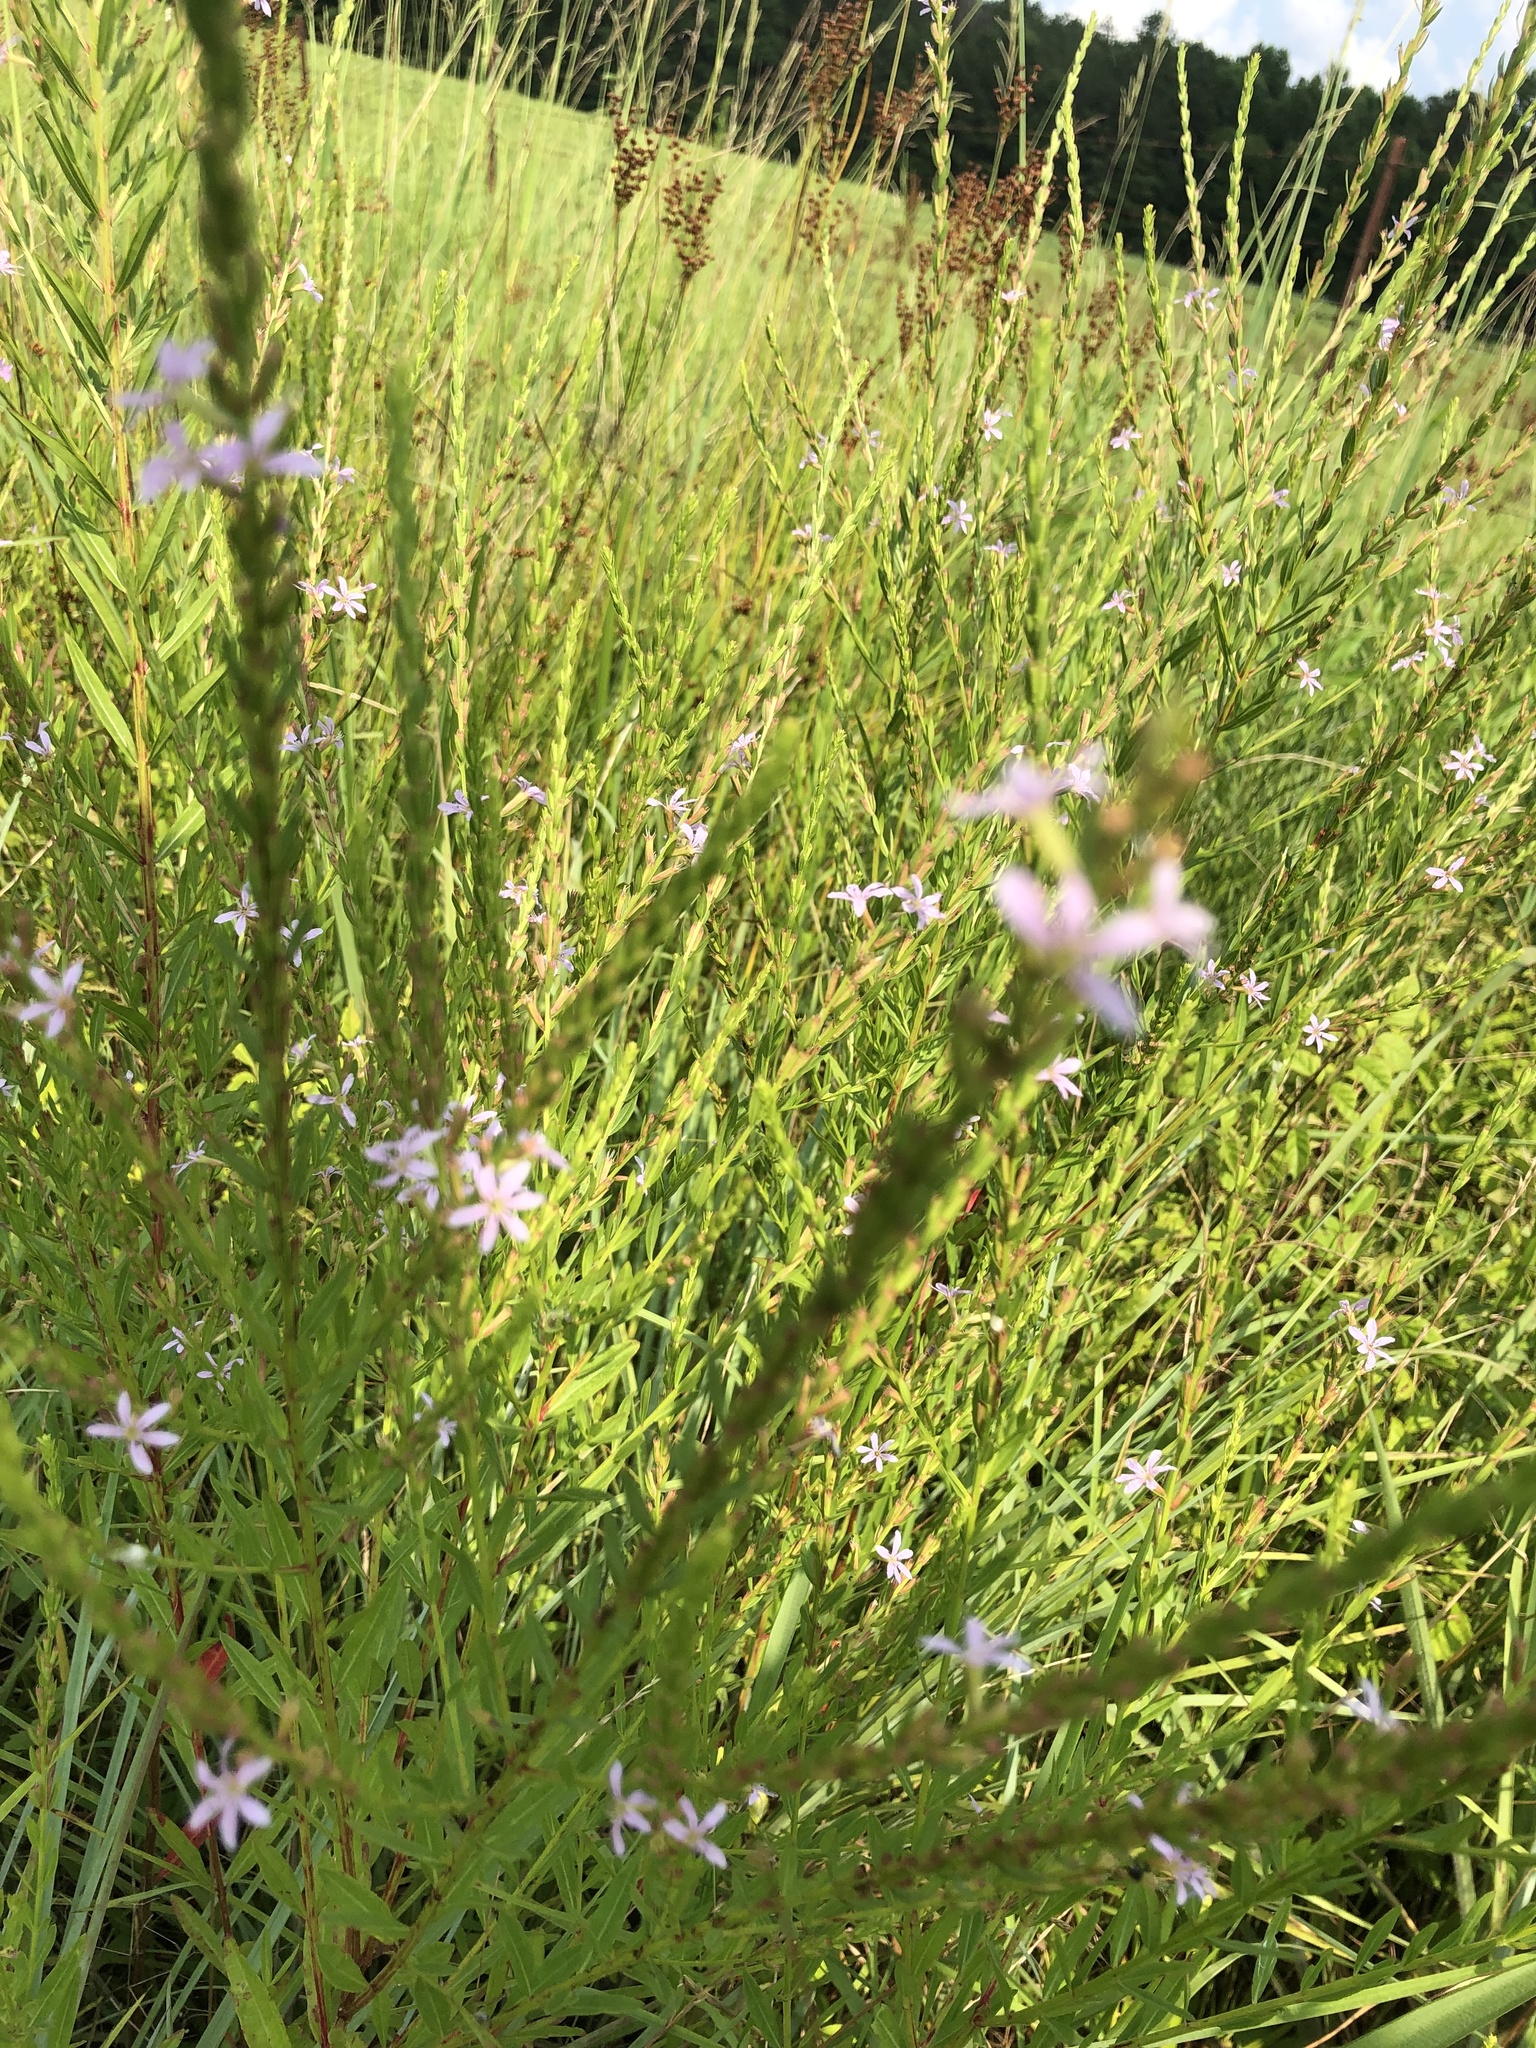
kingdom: Plantae
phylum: Tracheophyta
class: Magnoliopsida
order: Myrtales
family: Lythraceae
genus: Lythrum
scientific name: Lythrum alatum
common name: Winged loosestrife
